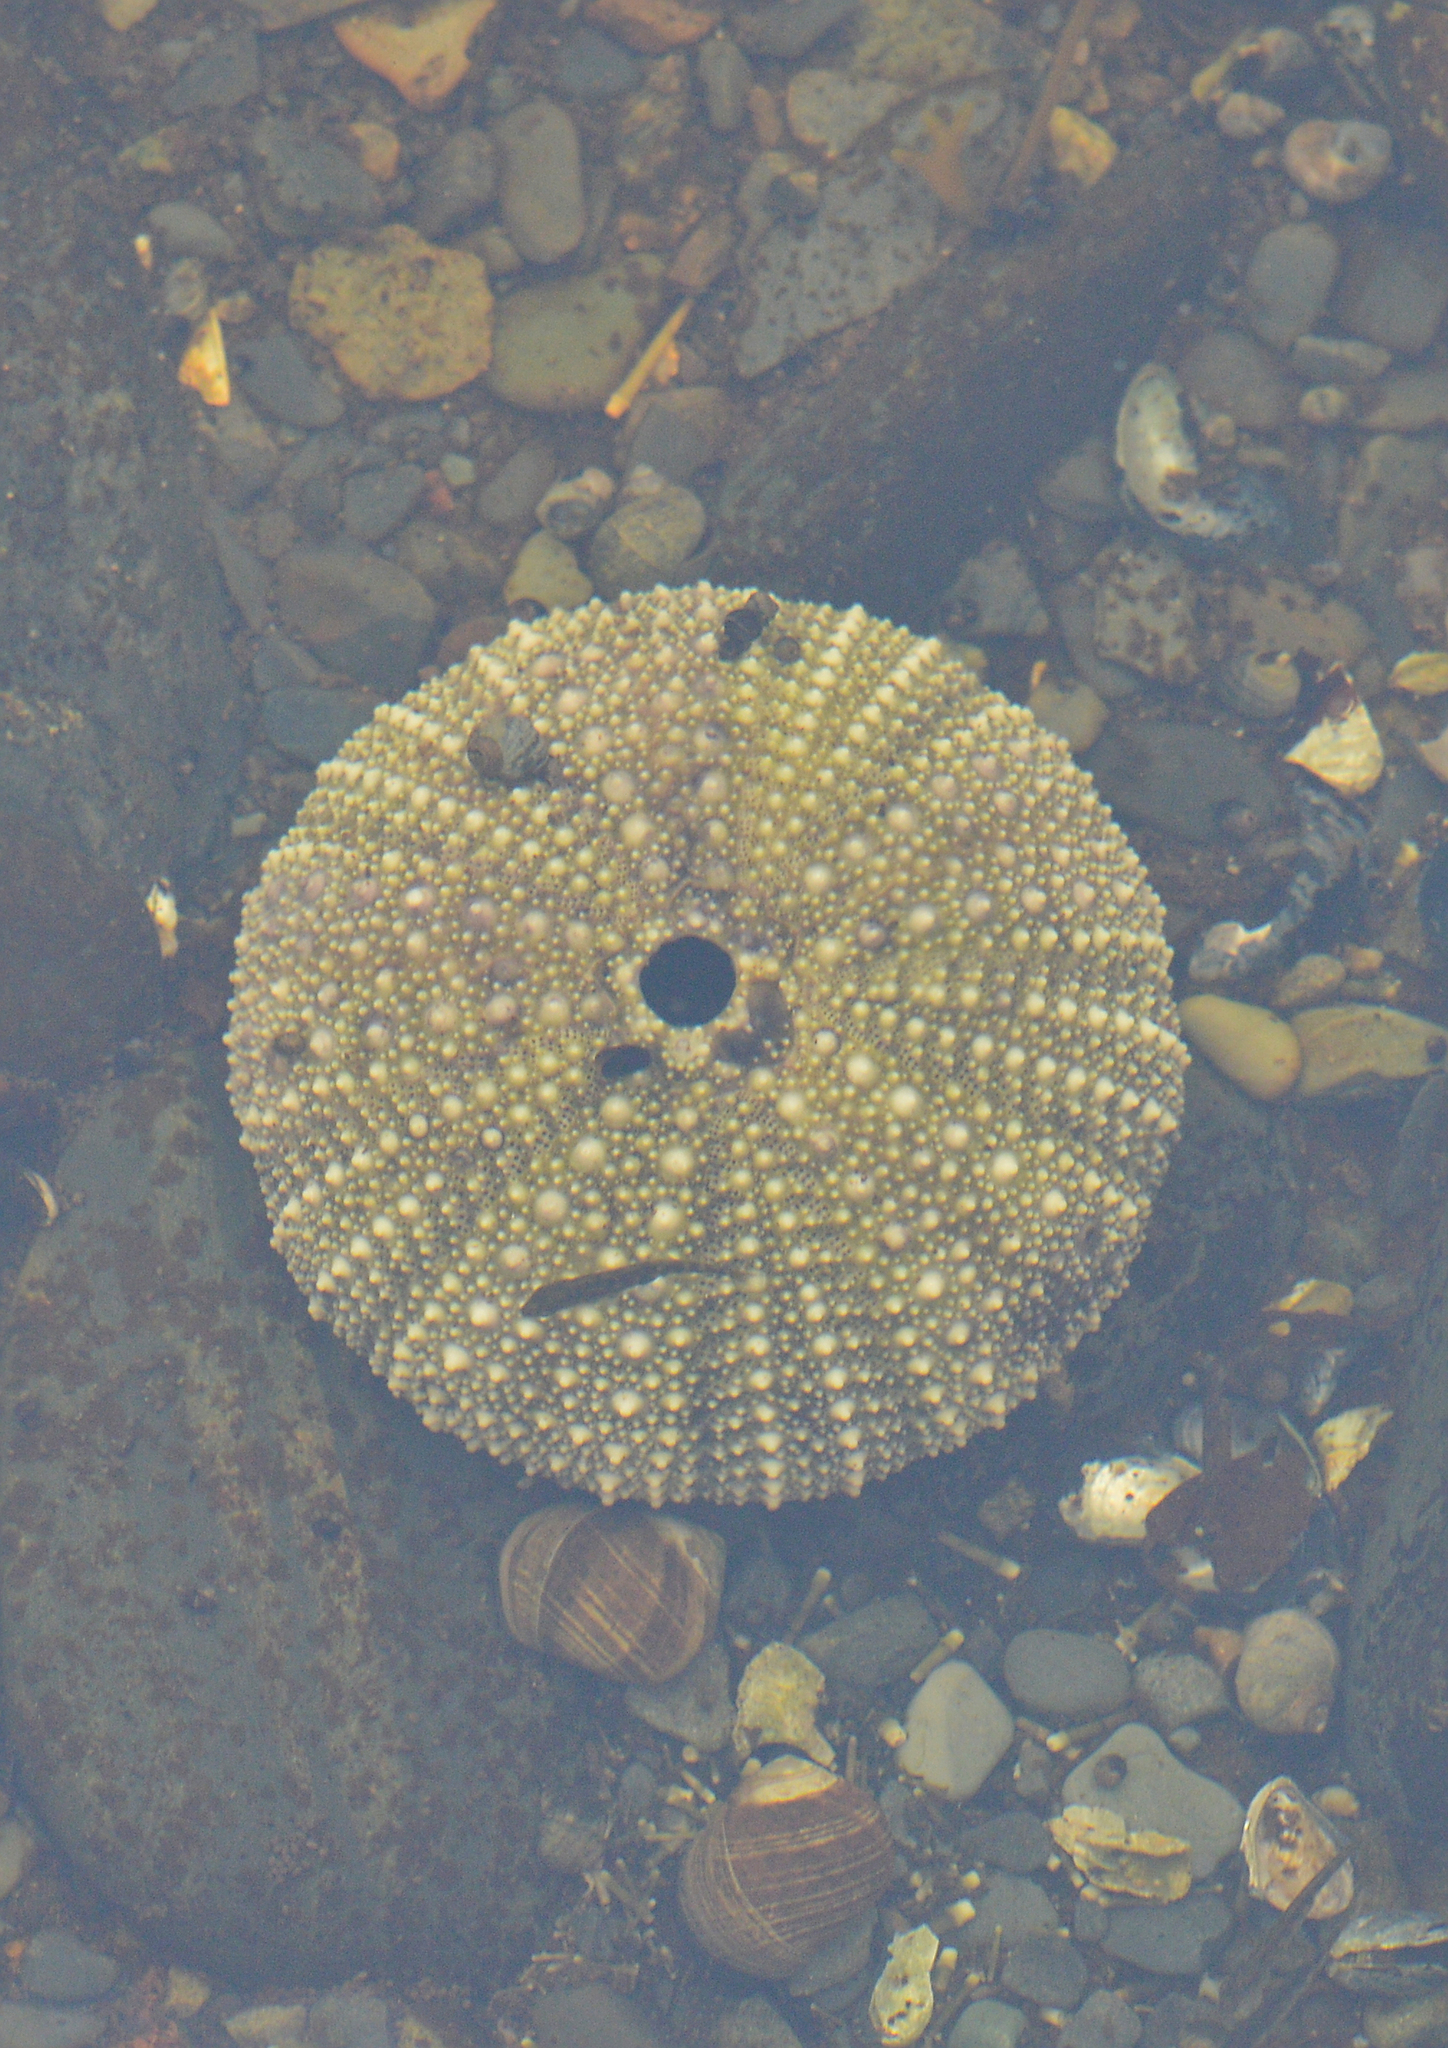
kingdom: Animalia
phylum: Echinodermata
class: Echinoidea
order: Camarodonta
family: Strongylocentrotidae
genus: Strongylocentrotus
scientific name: Strongylocentrotus droebachiensis
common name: Northern sea urchin
